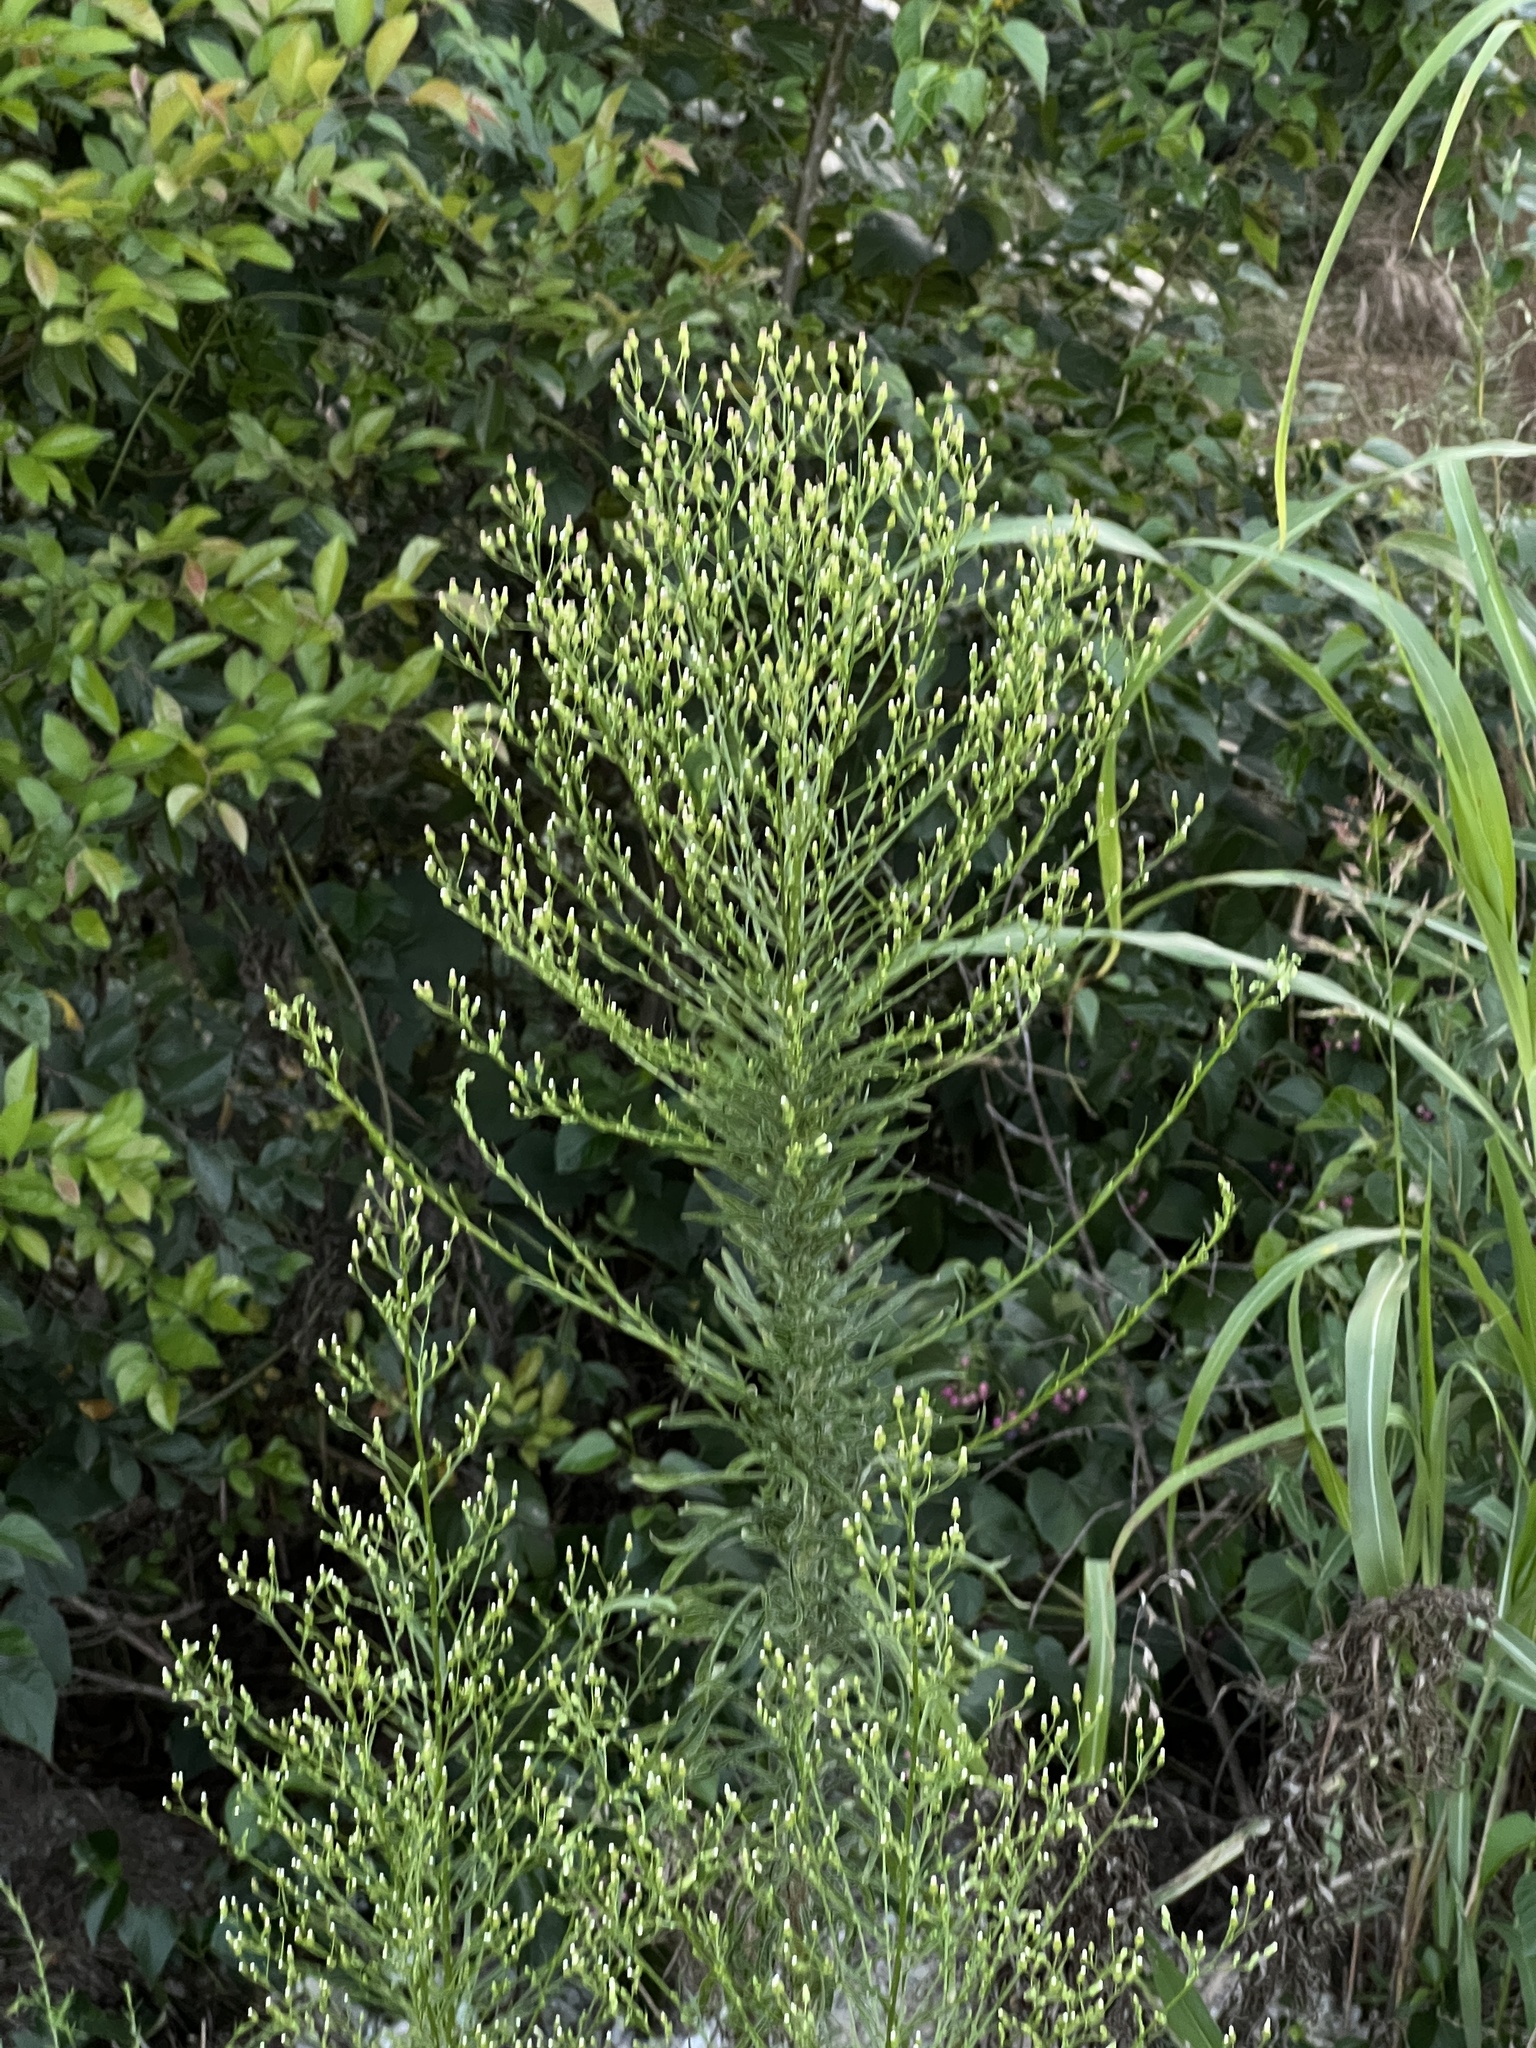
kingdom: Plantae
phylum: Tracheophyta
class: Magnoliopsida
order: Asterales
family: Asteraceae
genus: Erigeron
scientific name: Erigeron canadensis
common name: Canadian fleabane
